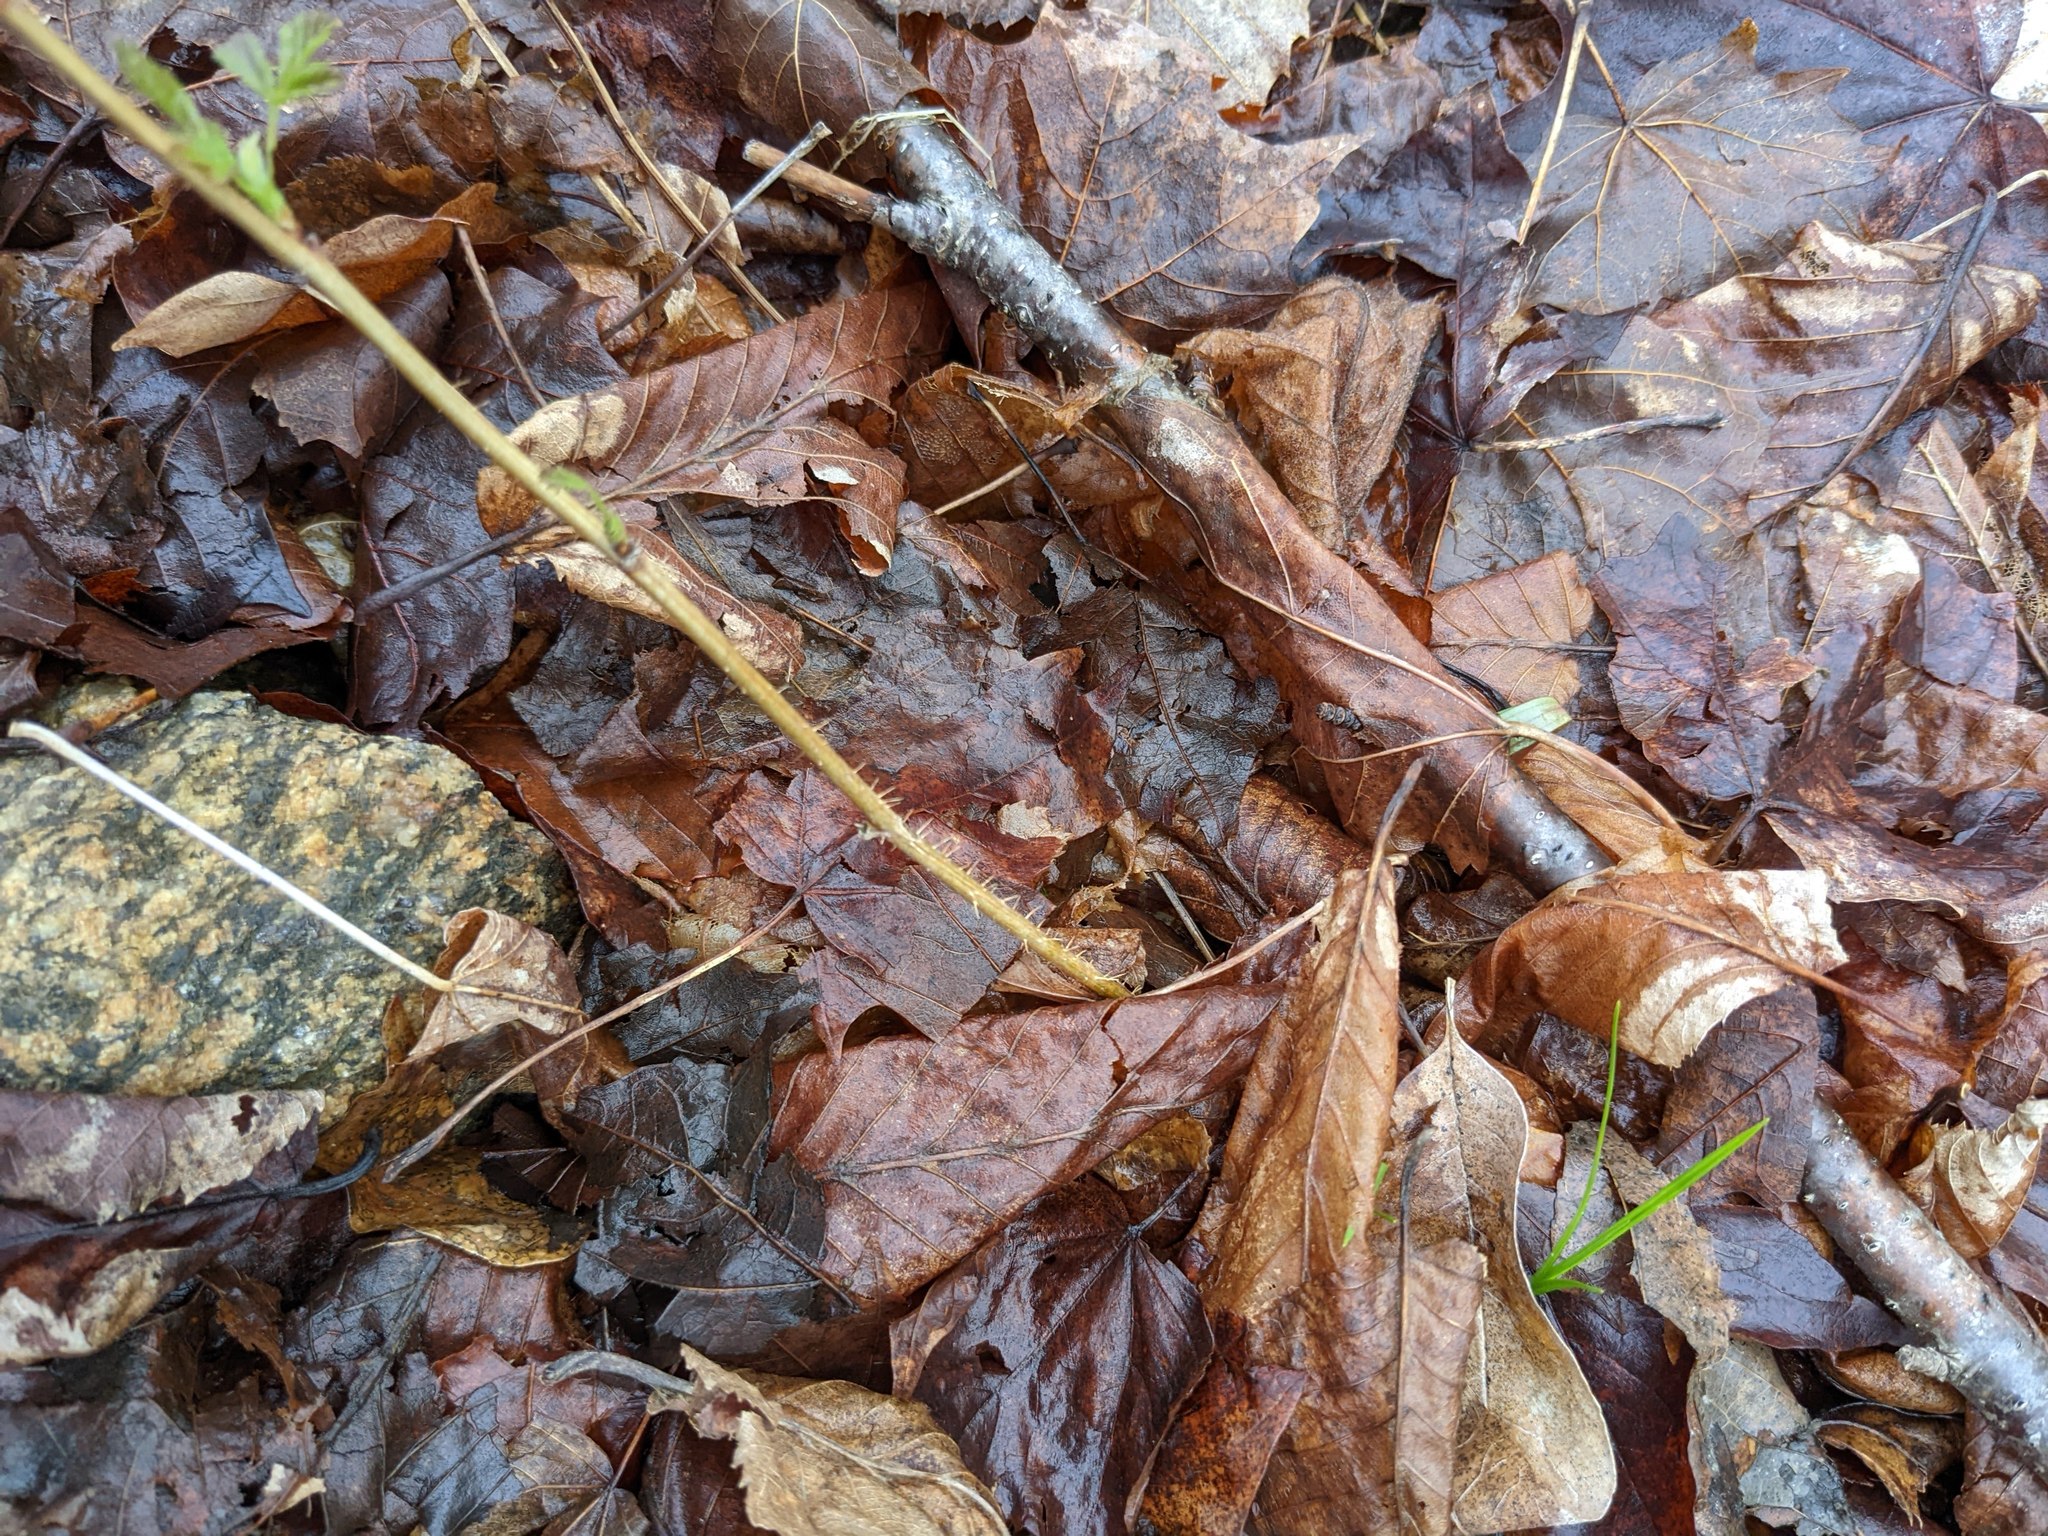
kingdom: Plantae
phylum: Tracheophyta
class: Magnoliopsida
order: Rosales
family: Rosaceae
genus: Rubus
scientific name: Rubus idaeus
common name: Raspberry
